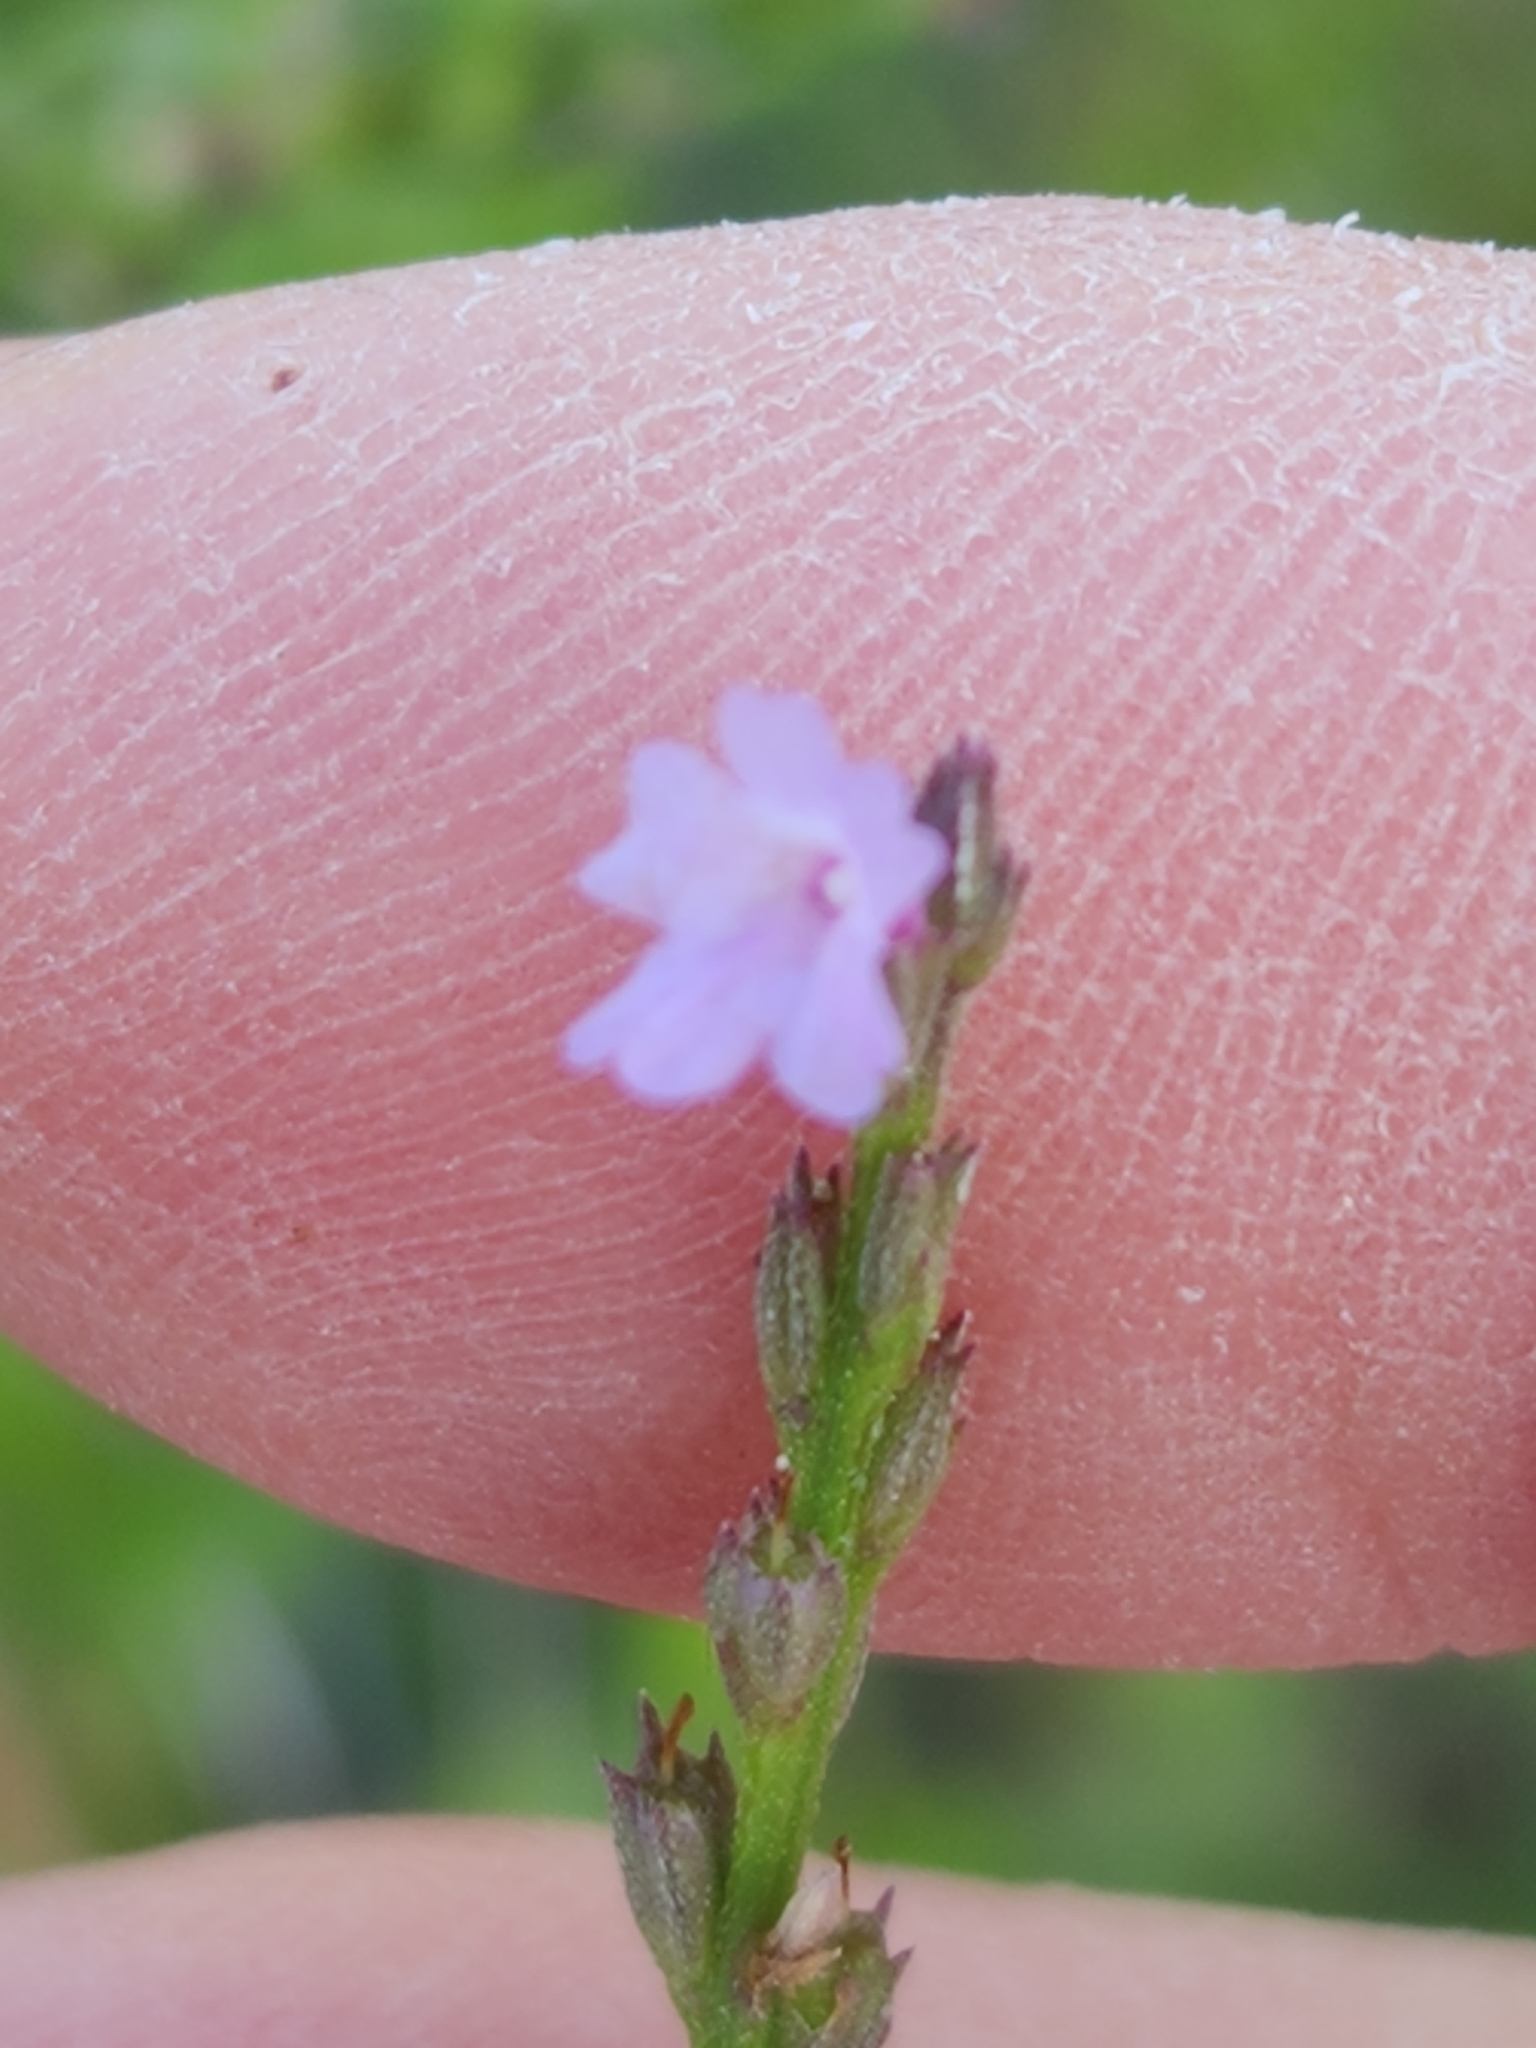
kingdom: Plantae
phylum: Tracheophyta
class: Magnoliopsida
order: Lamiales
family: Verbenaceae
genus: Verbena
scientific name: Verbena halei
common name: Texas vervain
